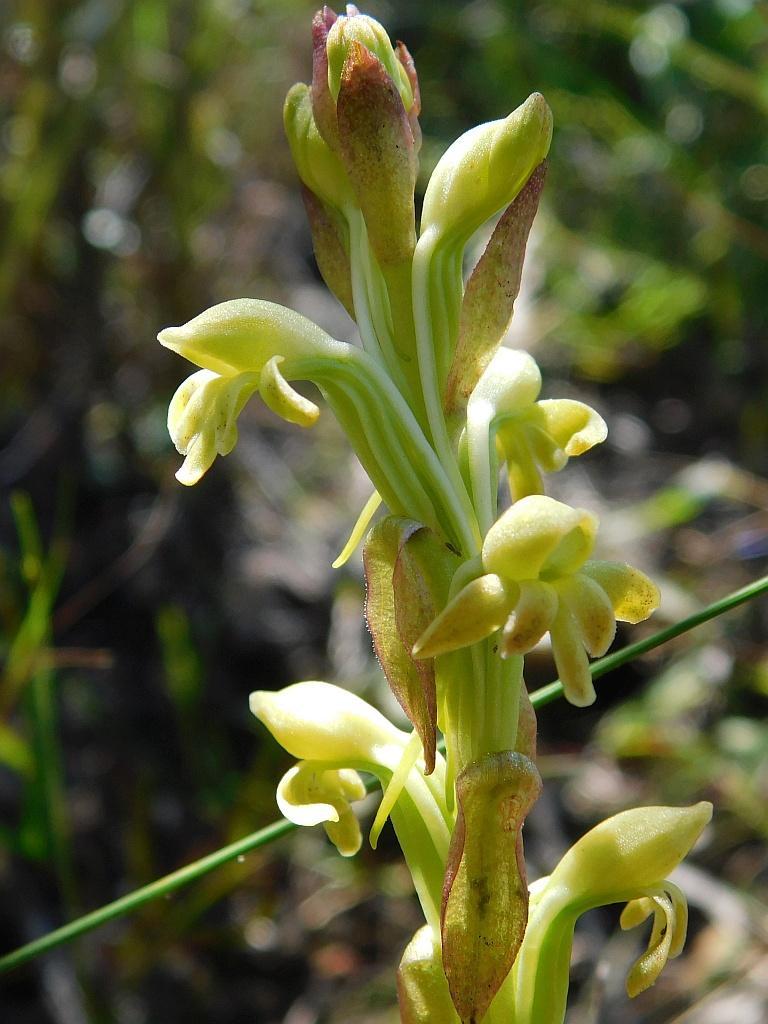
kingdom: Plantae
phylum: Tracheophyta
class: Liliopsida
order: Asparagales
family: Orchidaceae
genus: Satyrium
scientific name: Satyrium bicorne
